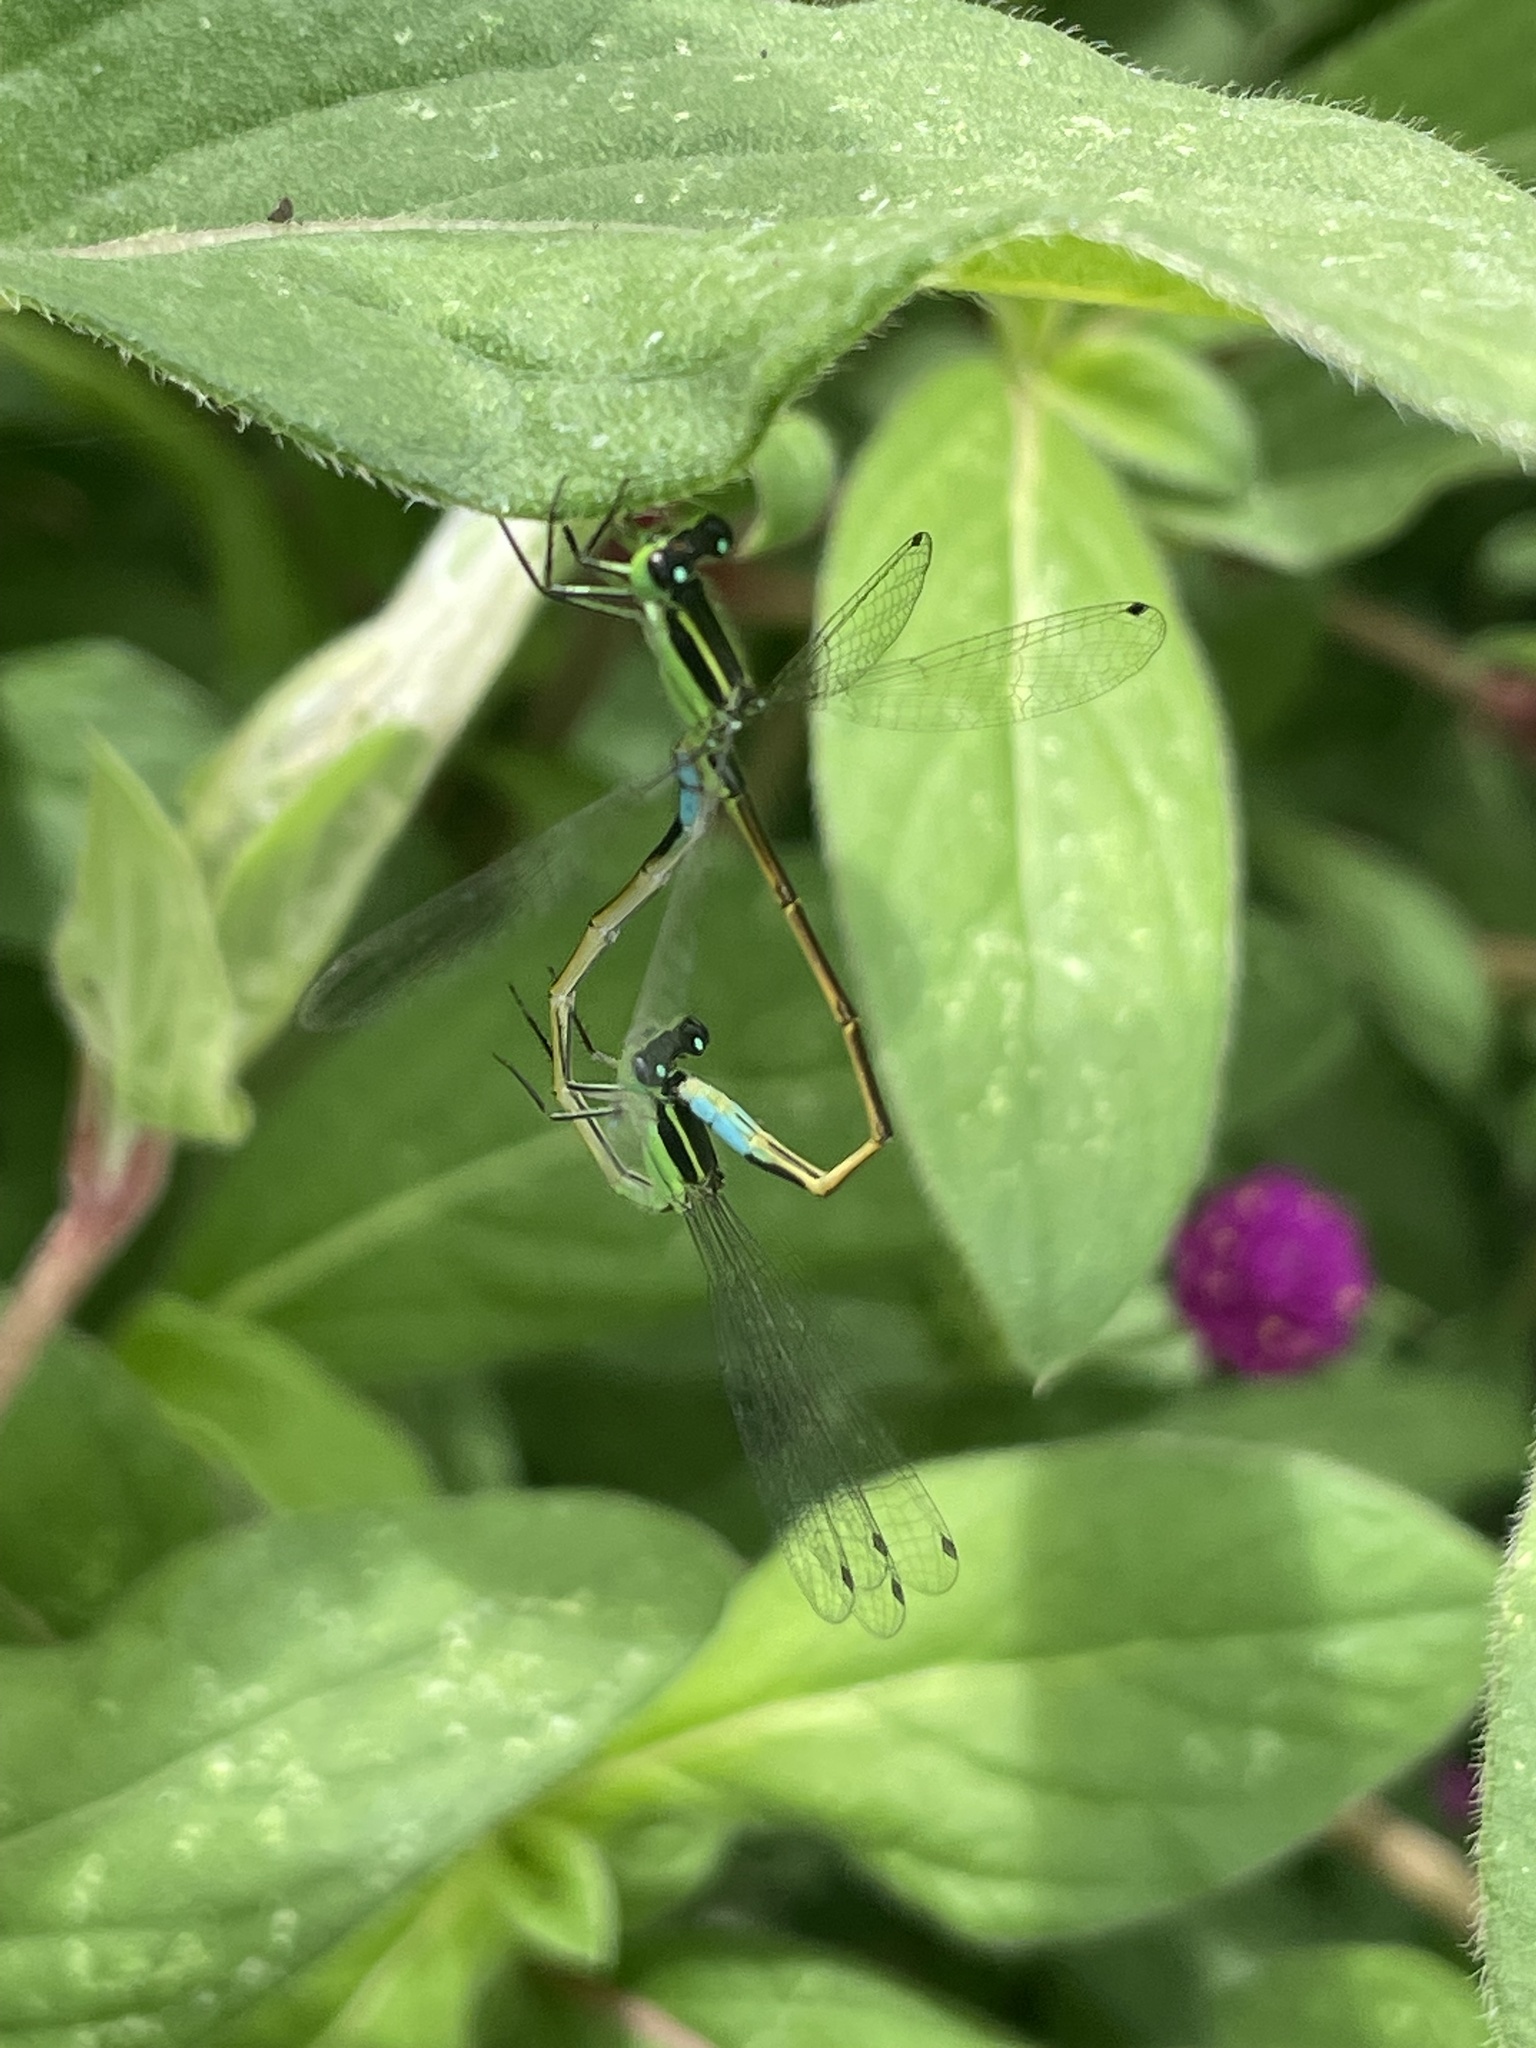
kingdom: Animalia
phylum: Arthropoda
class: Insecta
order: Odonata
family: Coenagrionidae
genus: Ischnura
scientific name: Ischnura ramburii
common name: Rambur's forktail
